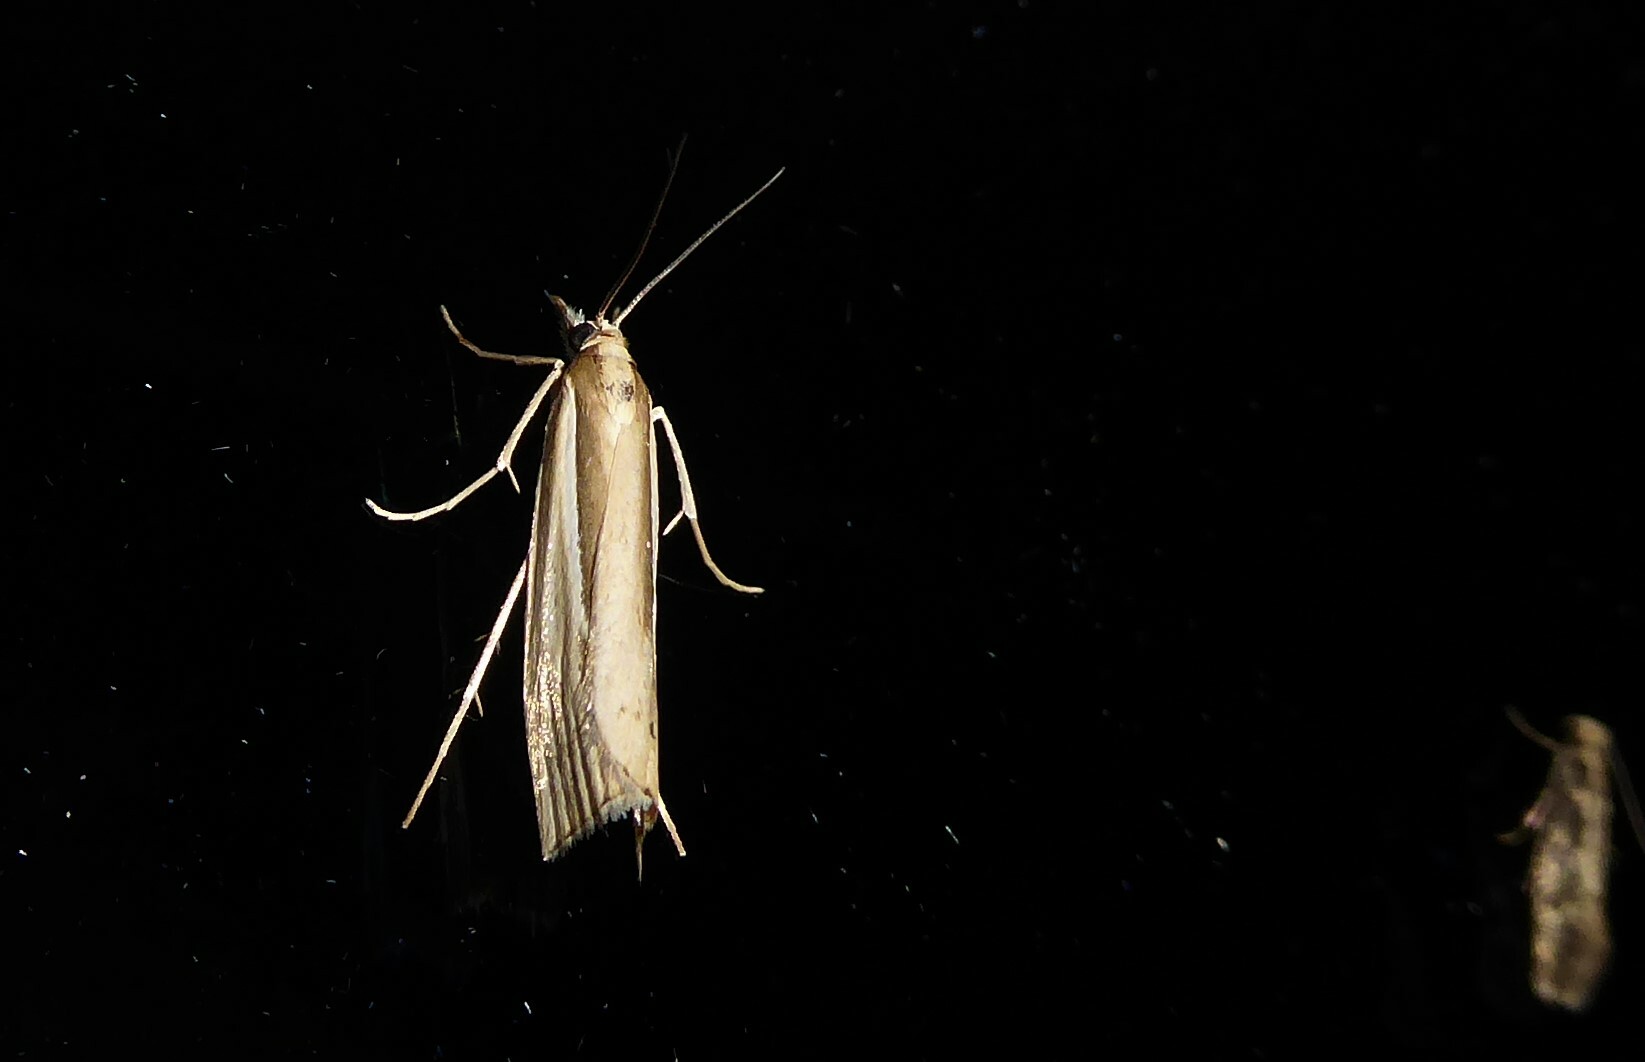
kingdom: Animalia
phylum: Arthropoda
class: Insecta
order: Lepidoptera
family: Crambidae
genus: Orocrambus
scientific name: Orocrambus ramosellus
